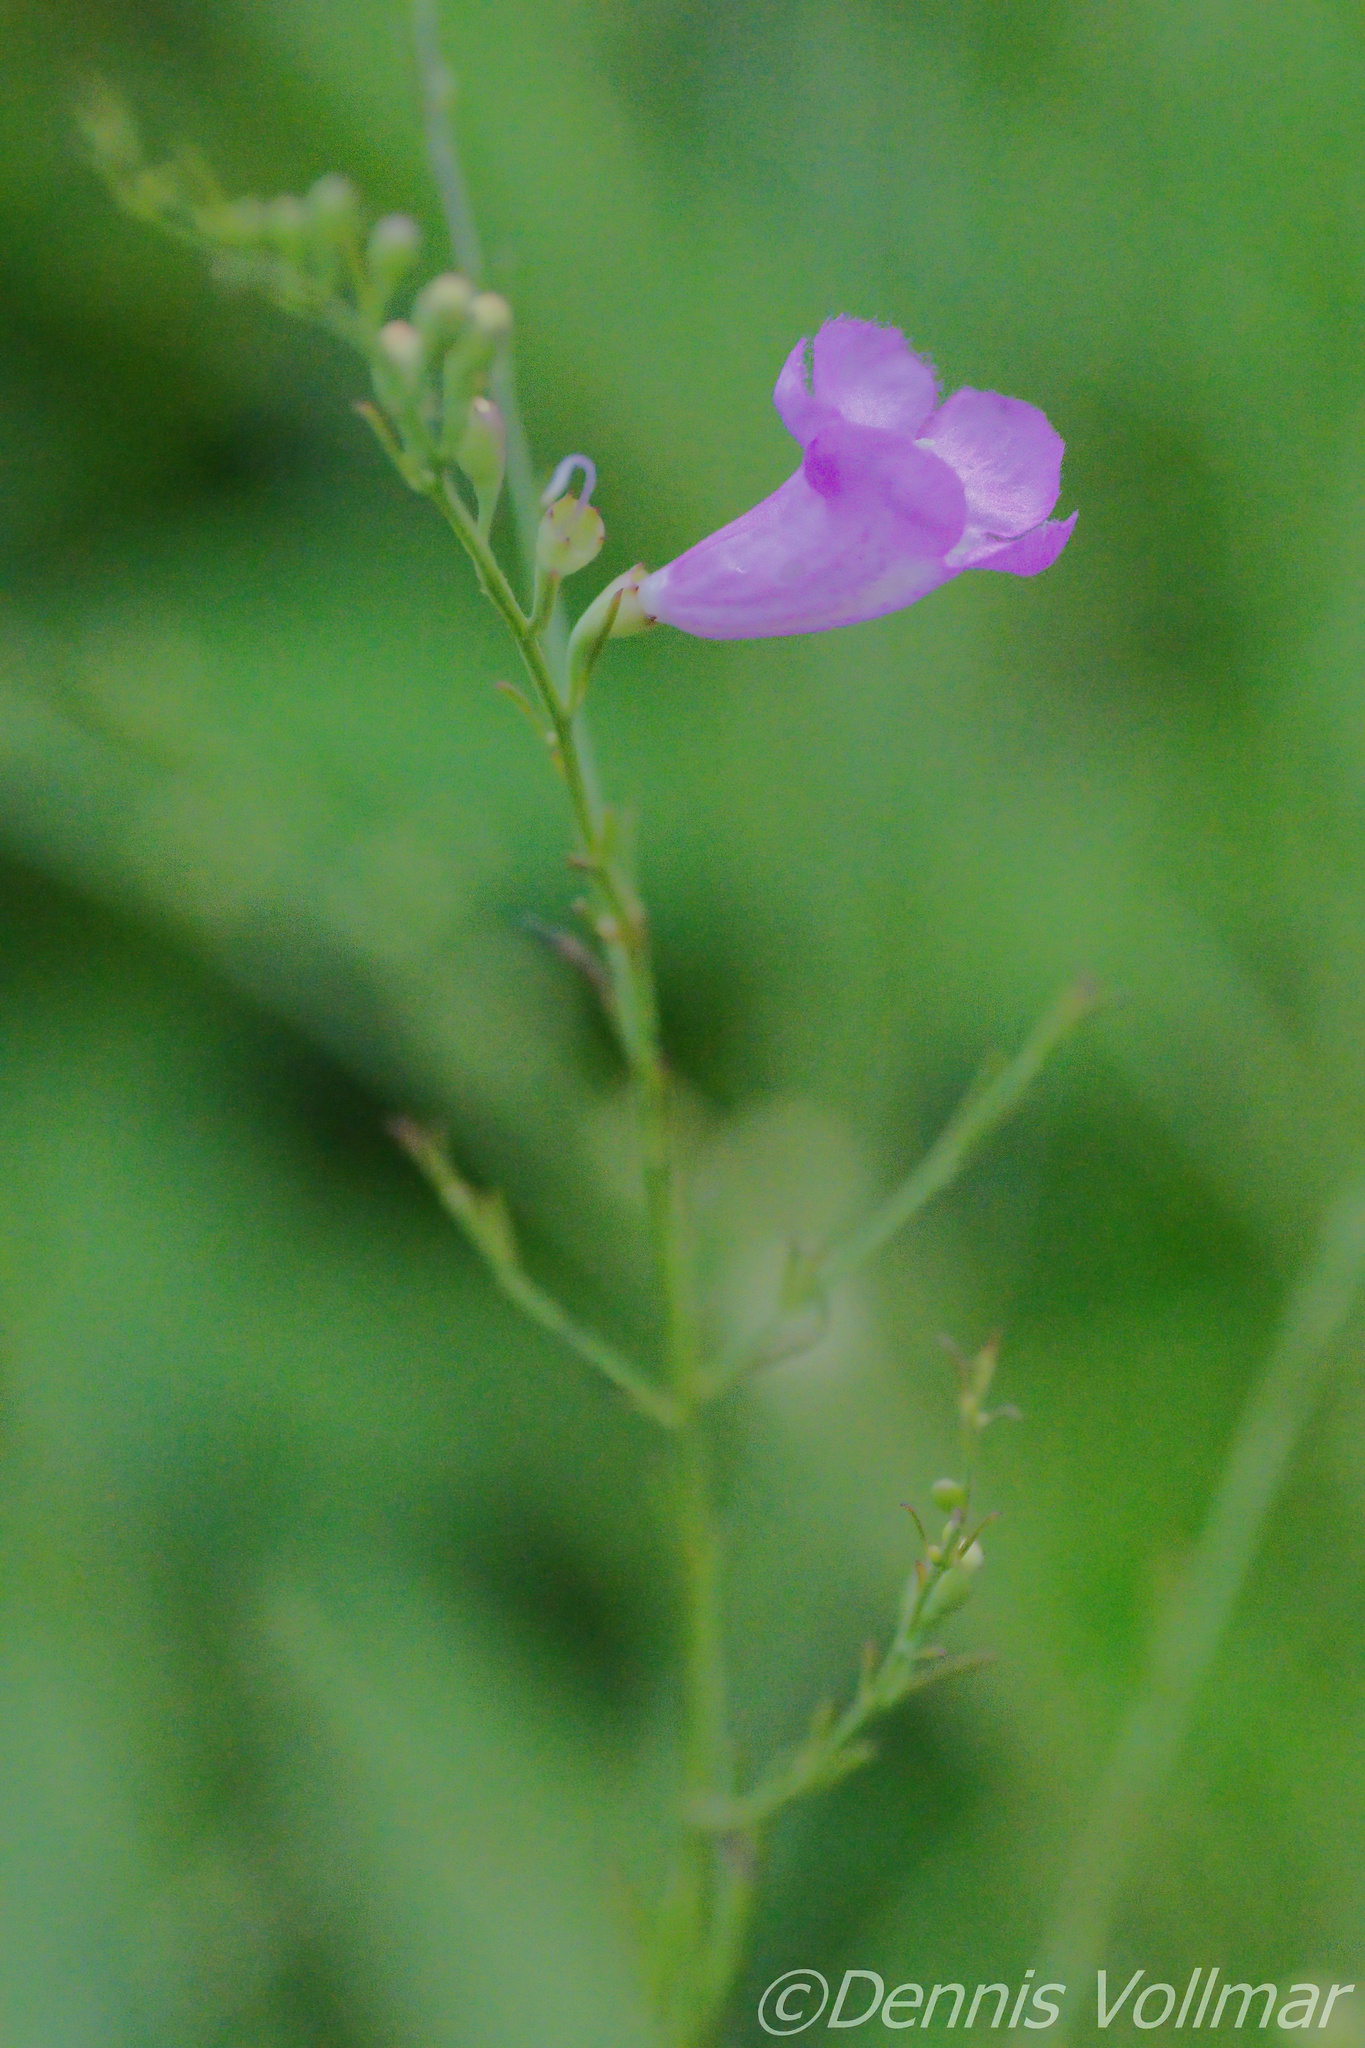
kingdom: Plantae
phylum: Tracheophyta
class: Magnoliopsida
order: Lamiales
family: Orobanchaceae
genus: Agalinis
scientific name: Agalinis fasciculata
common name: Beach false foxglove
